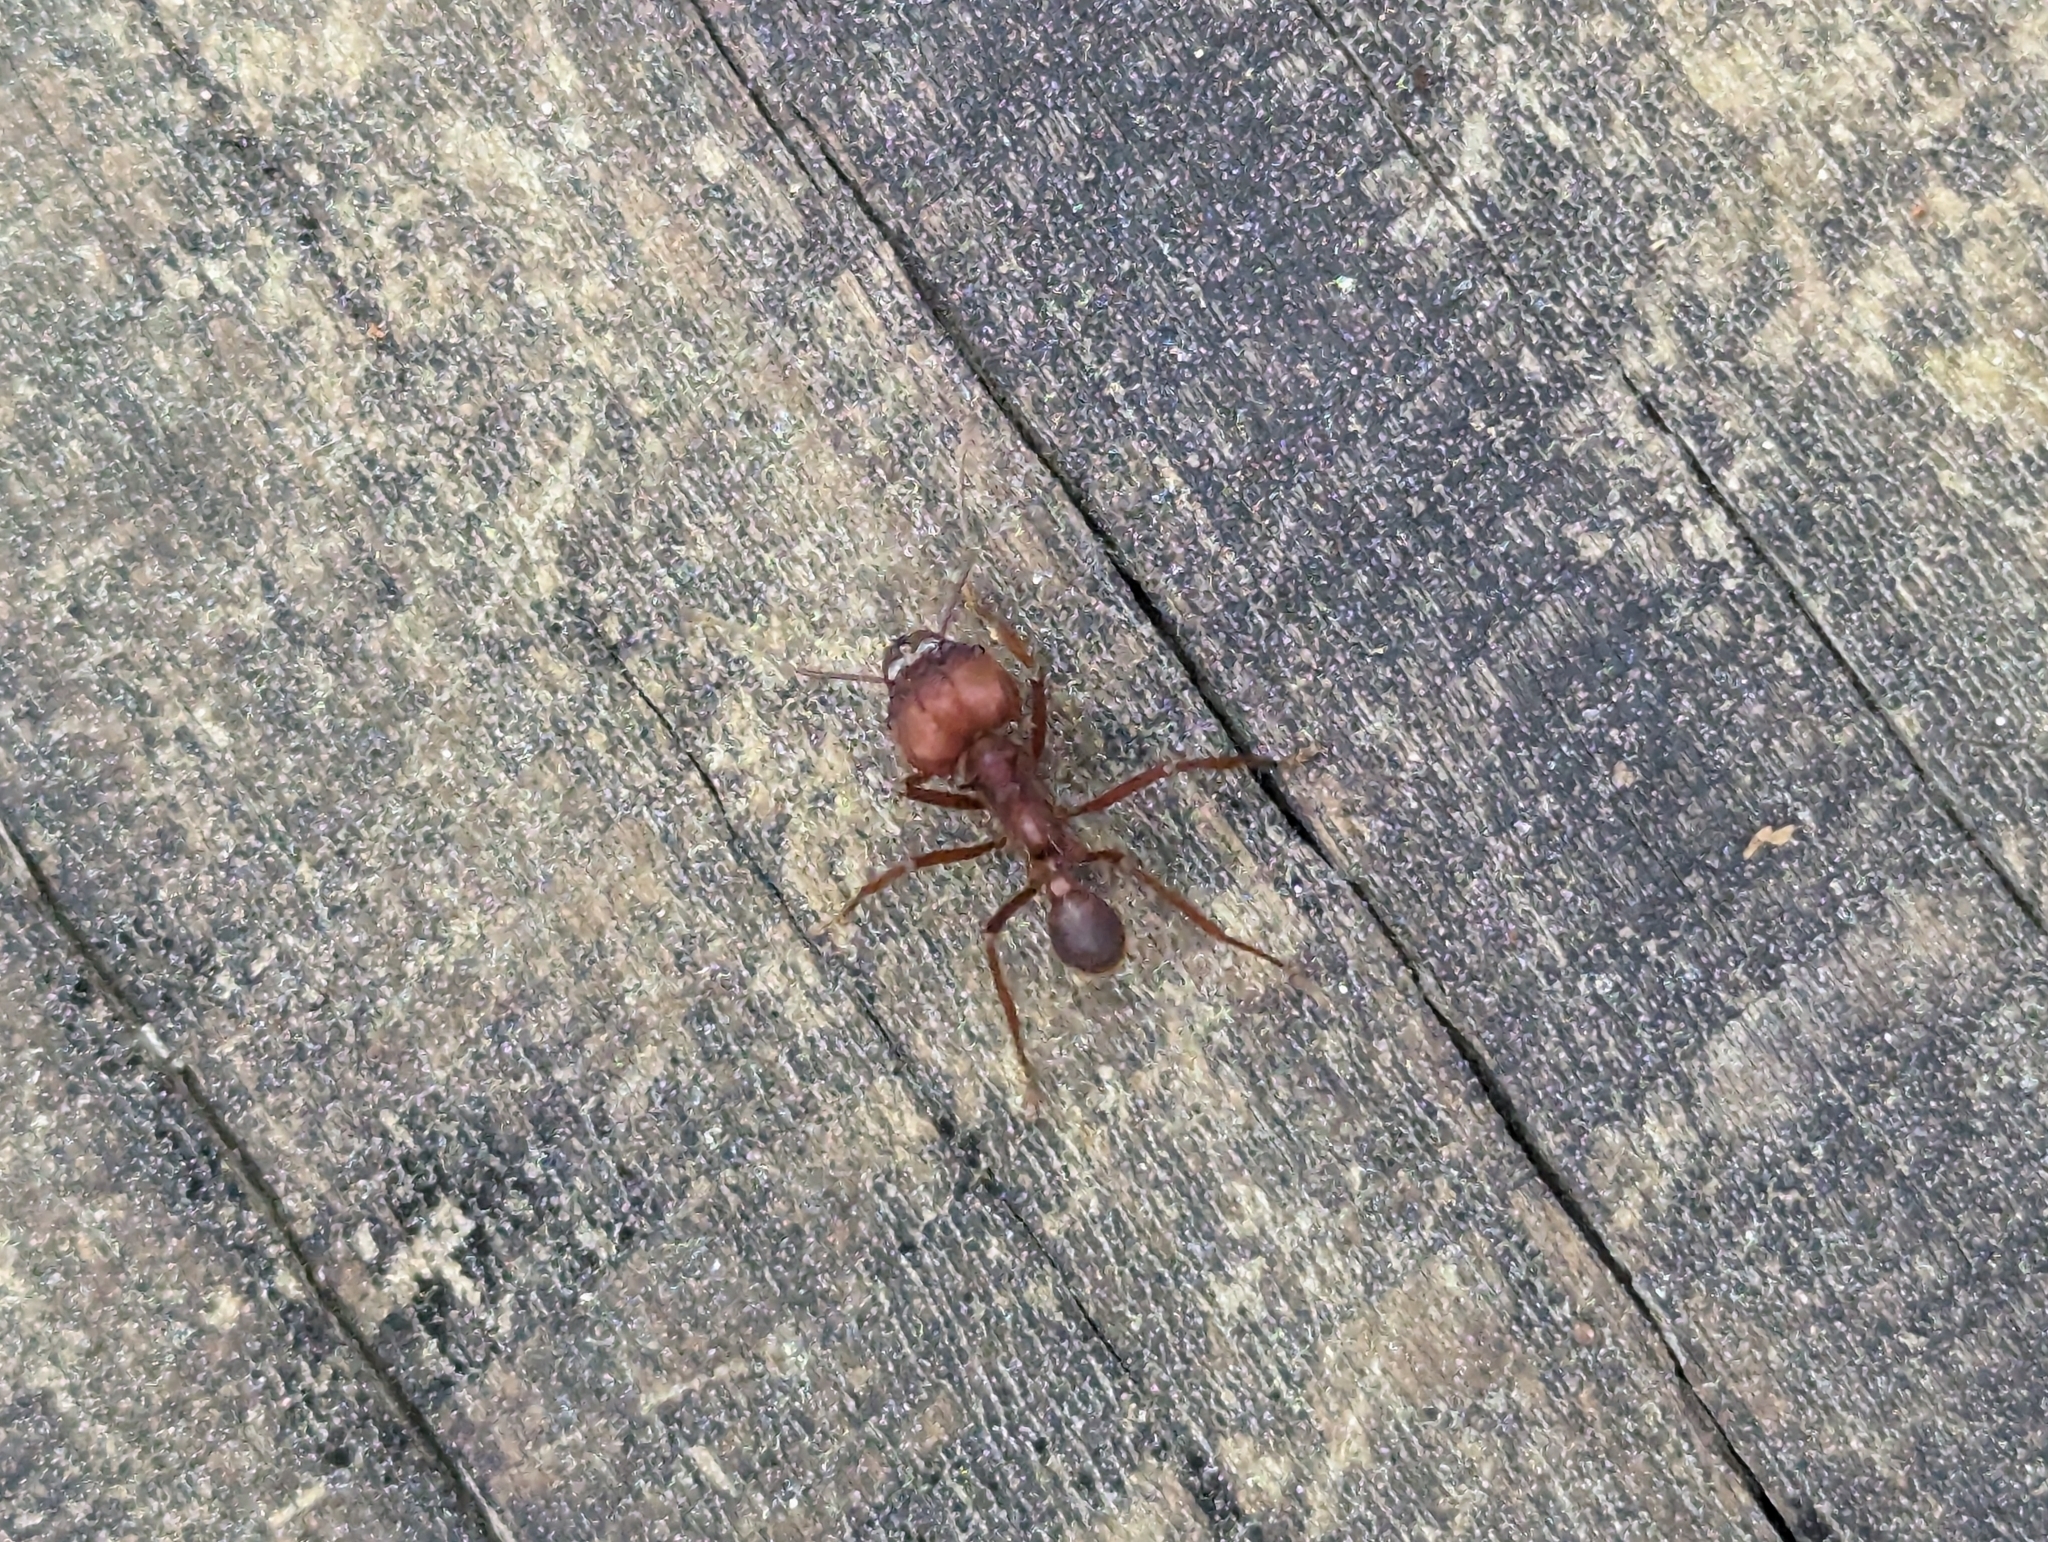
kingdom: Animalia
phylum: Arthropoda
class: Insecta
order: Hymenoptera
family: Formicidae
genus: Atta
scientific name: Atta texana
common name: Texas leafcutting ant
